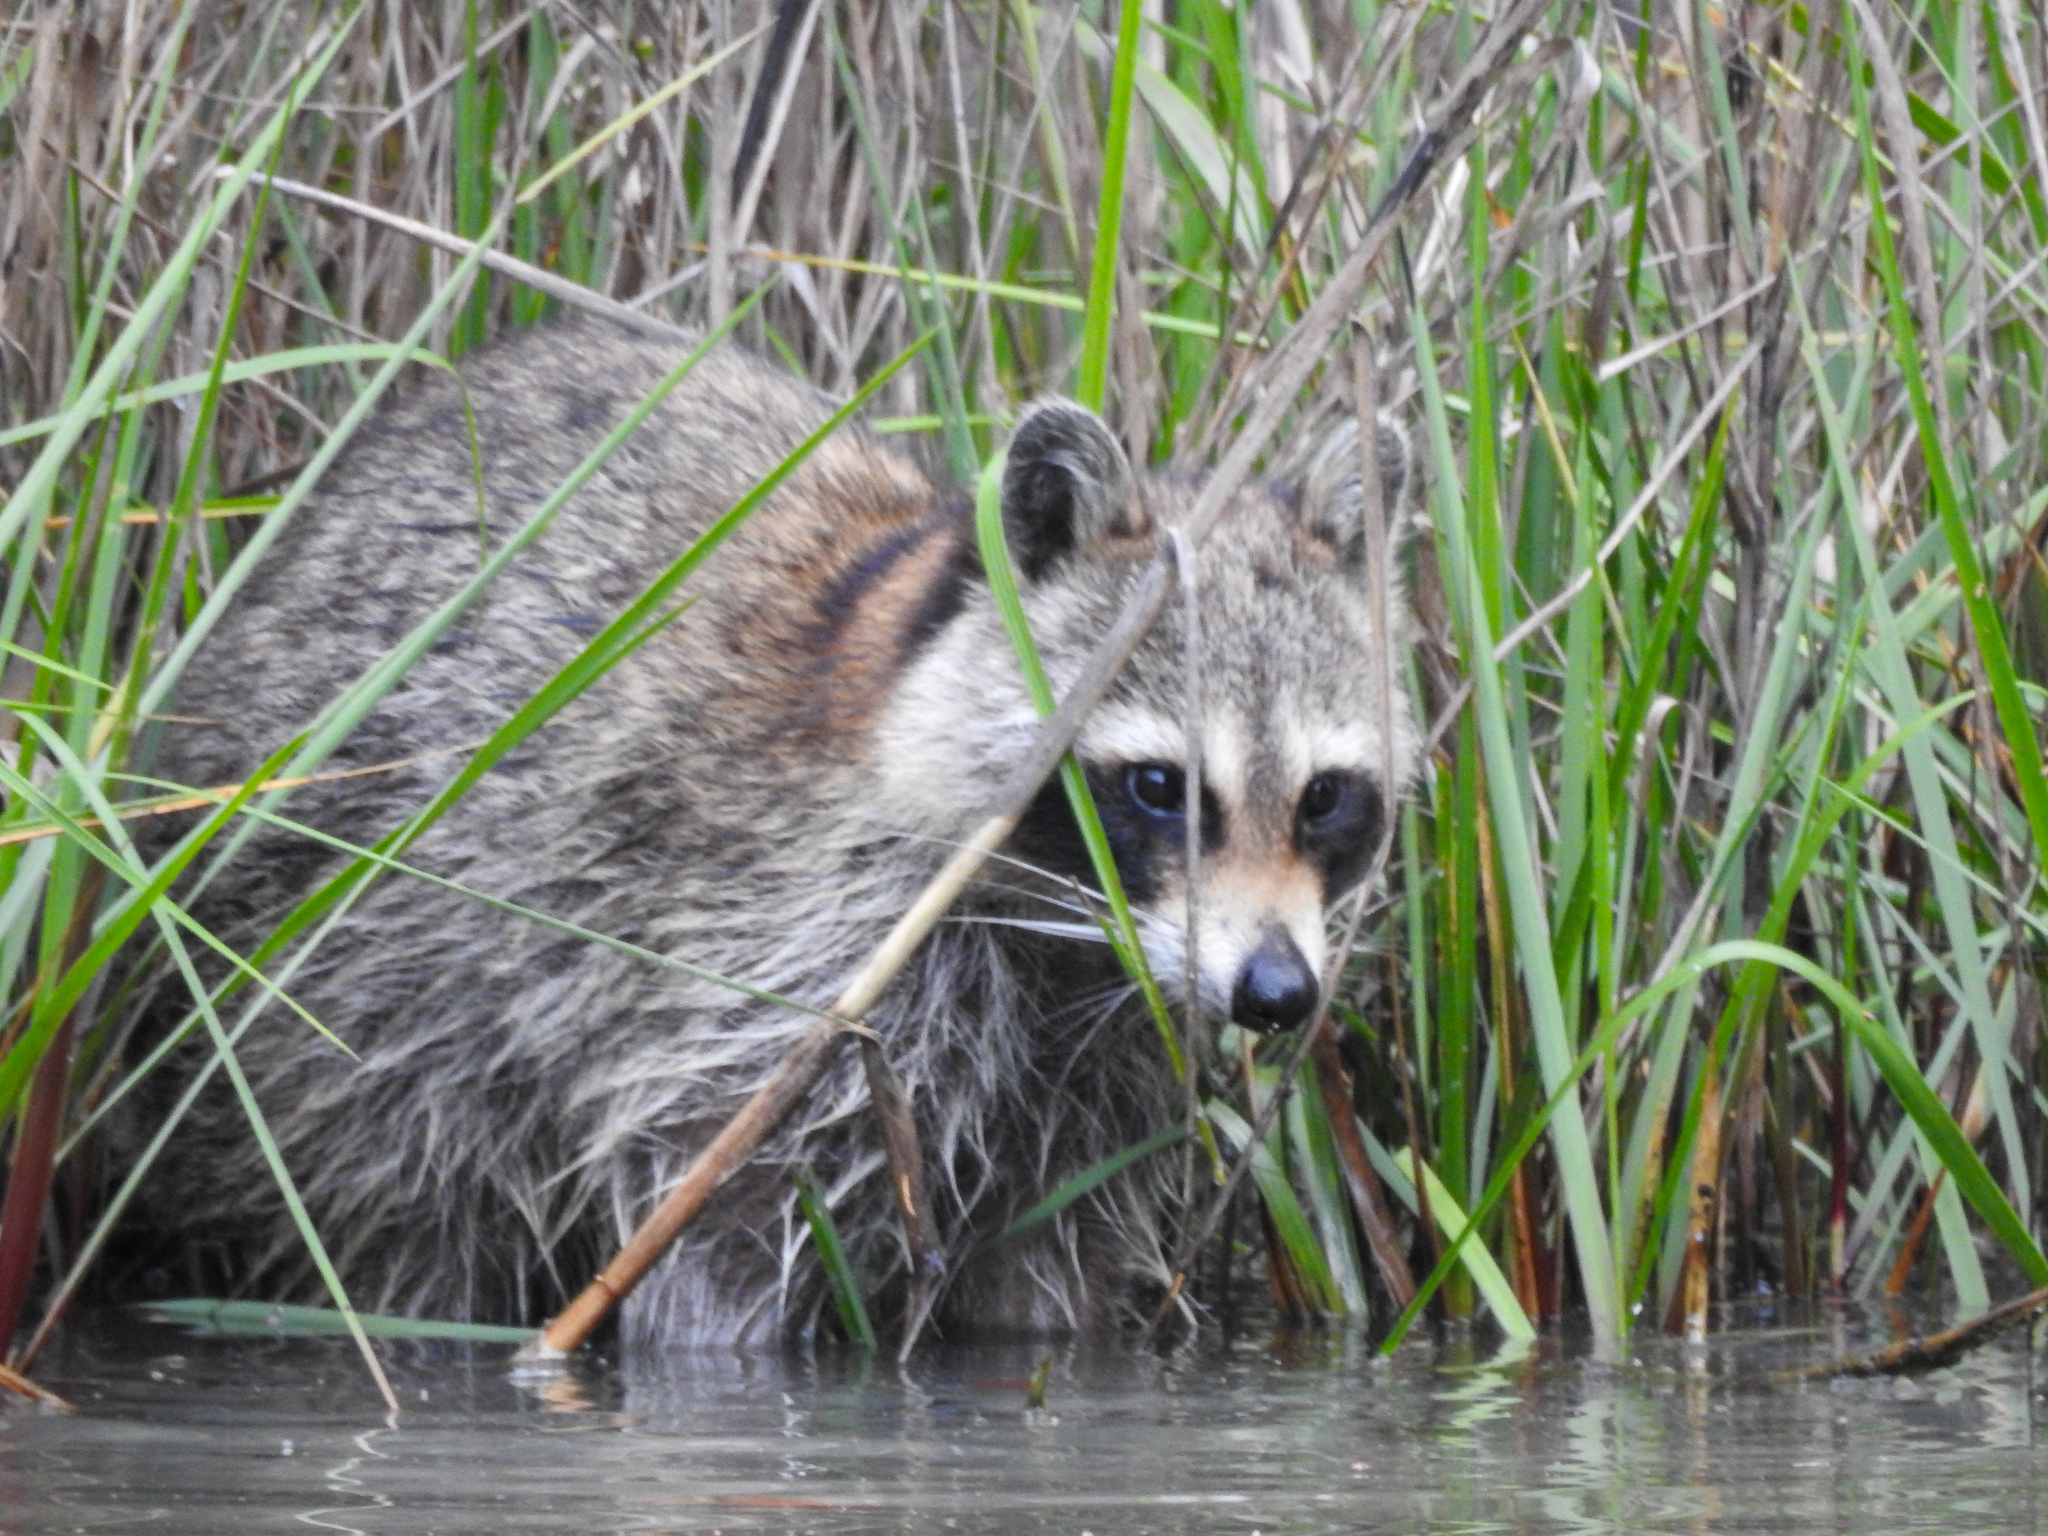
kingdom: Animalia
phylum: Chordata
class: Mammalia
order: Carnivora
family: Procyonidae
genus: Procyon
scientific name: Procyon lotor
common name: Raccoon
